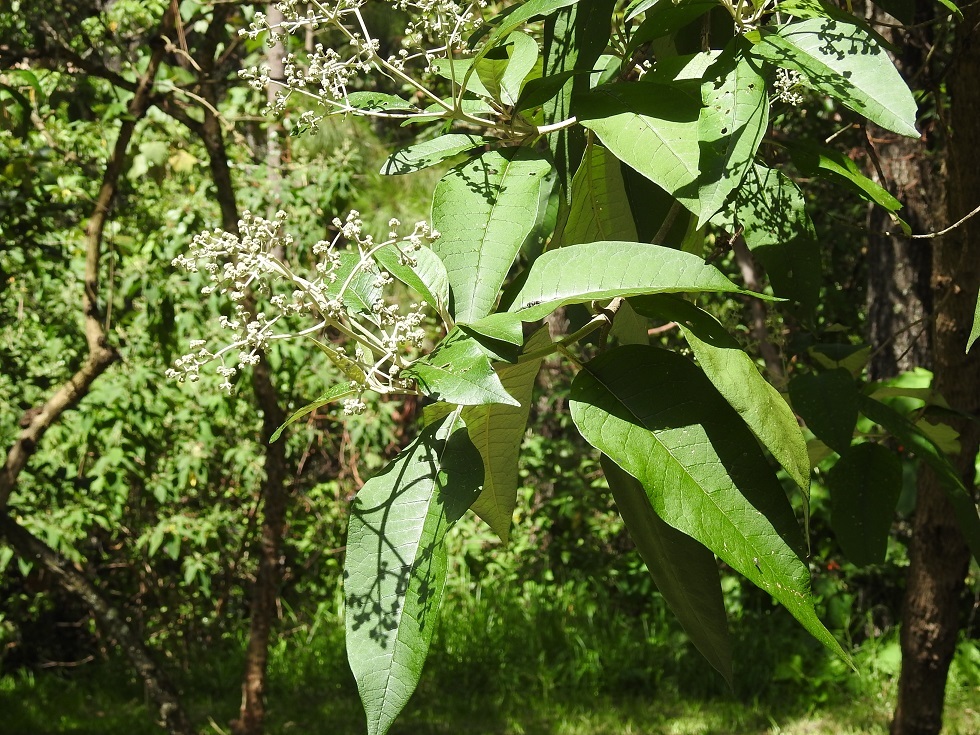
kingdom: Plantae
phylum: Tracheophyta
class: Magnoliopsida
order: Lamiales
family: Scrophulariaceae
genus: Buddleja
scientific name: Buddleja cordata
